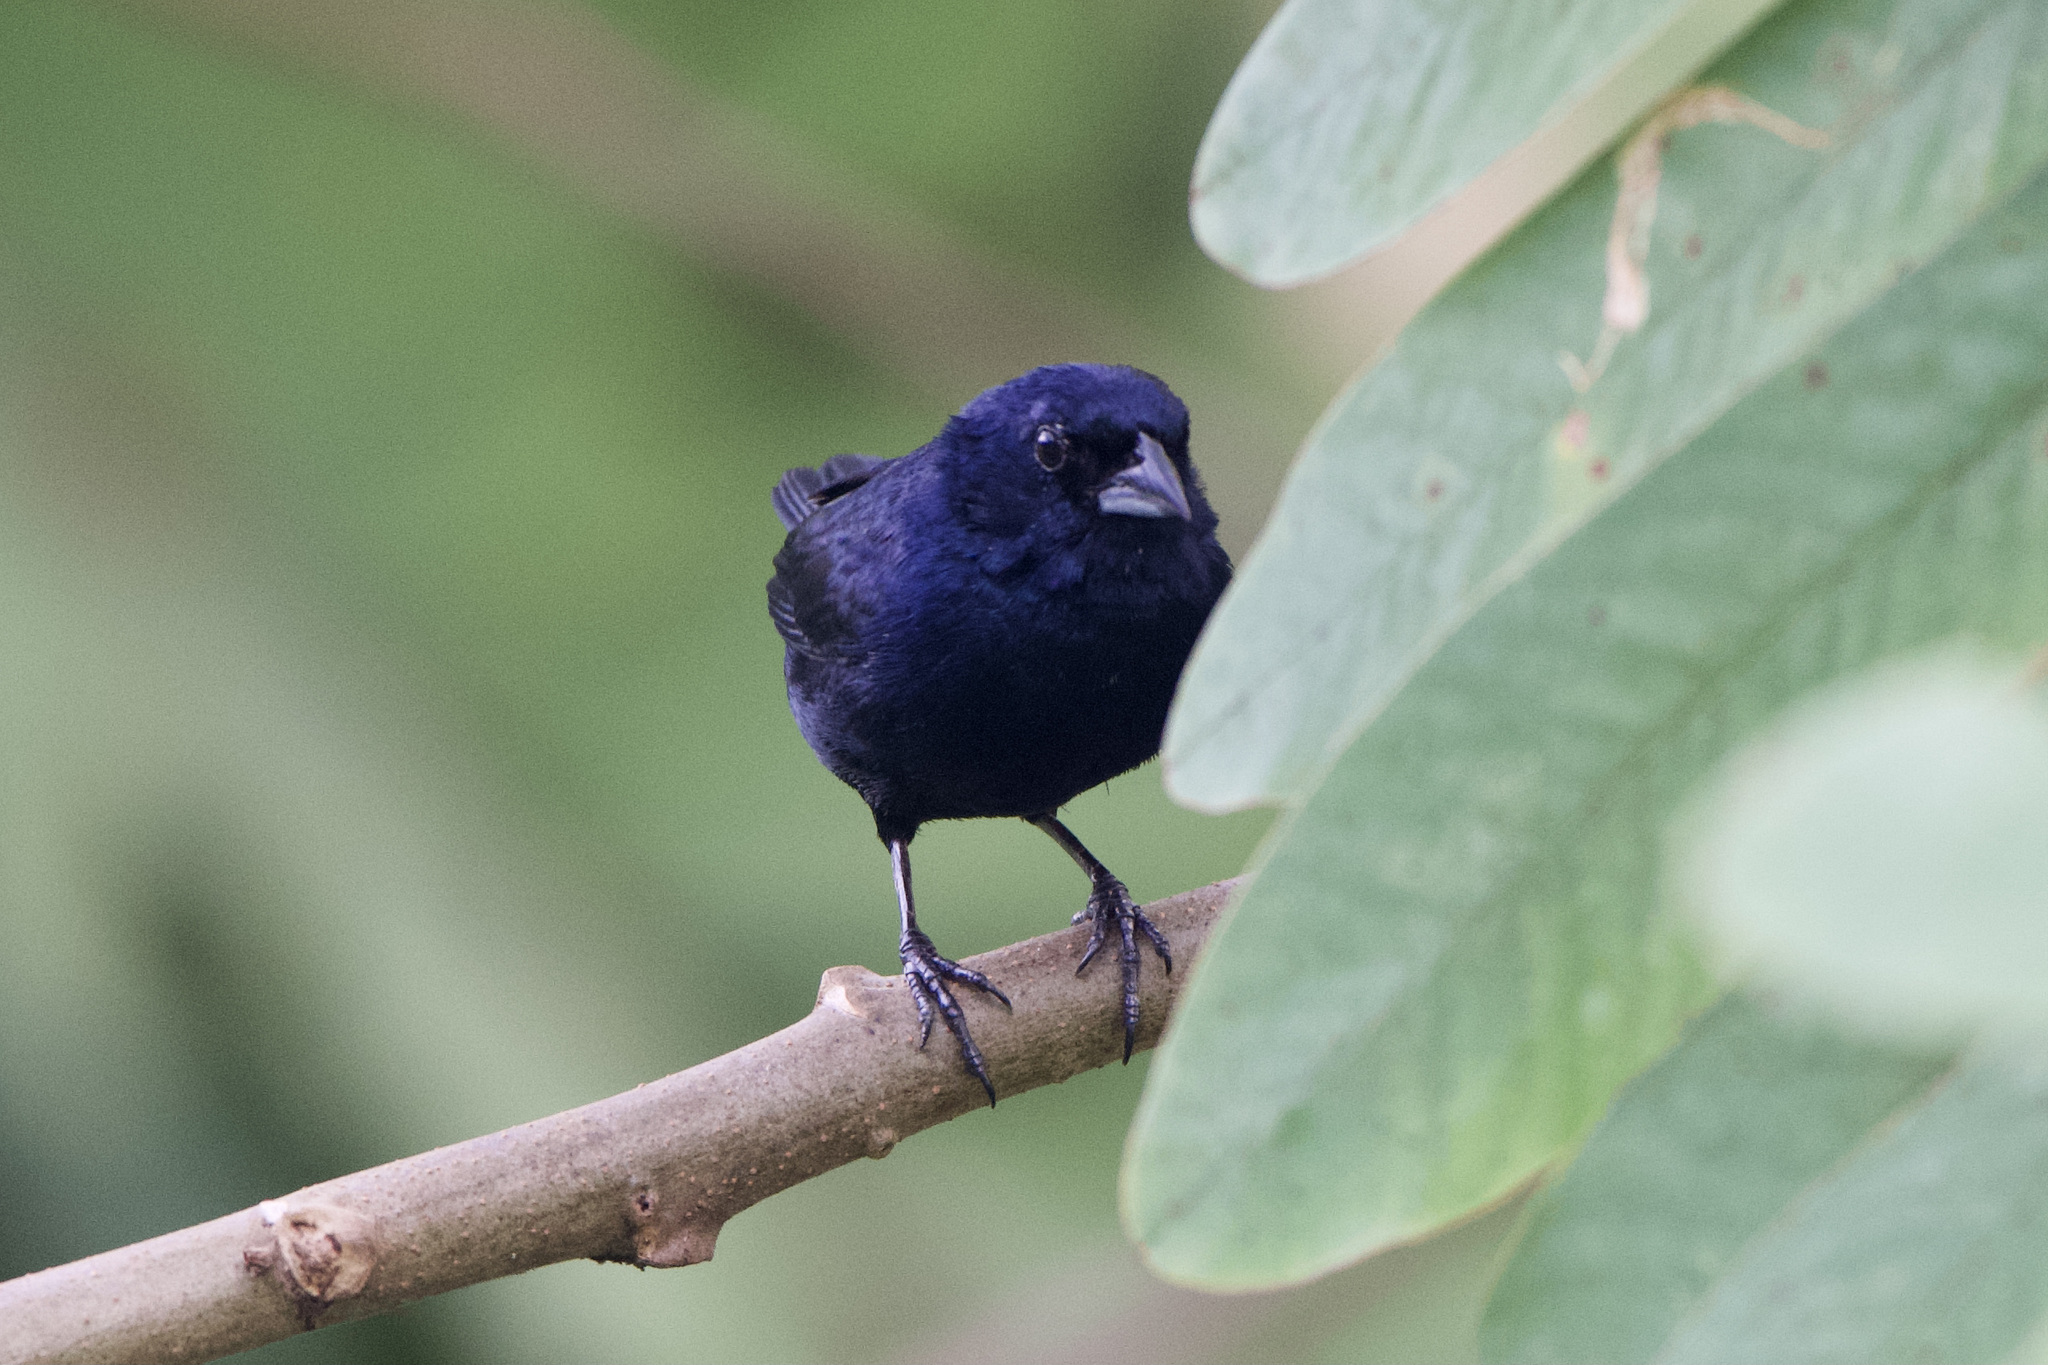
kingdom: Animalia
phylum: Chordata
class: Aves
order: Passeriformes
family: Thraupidae
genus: Volatinia
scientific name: Volatinia jacarina
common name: Blue-black grassquit
